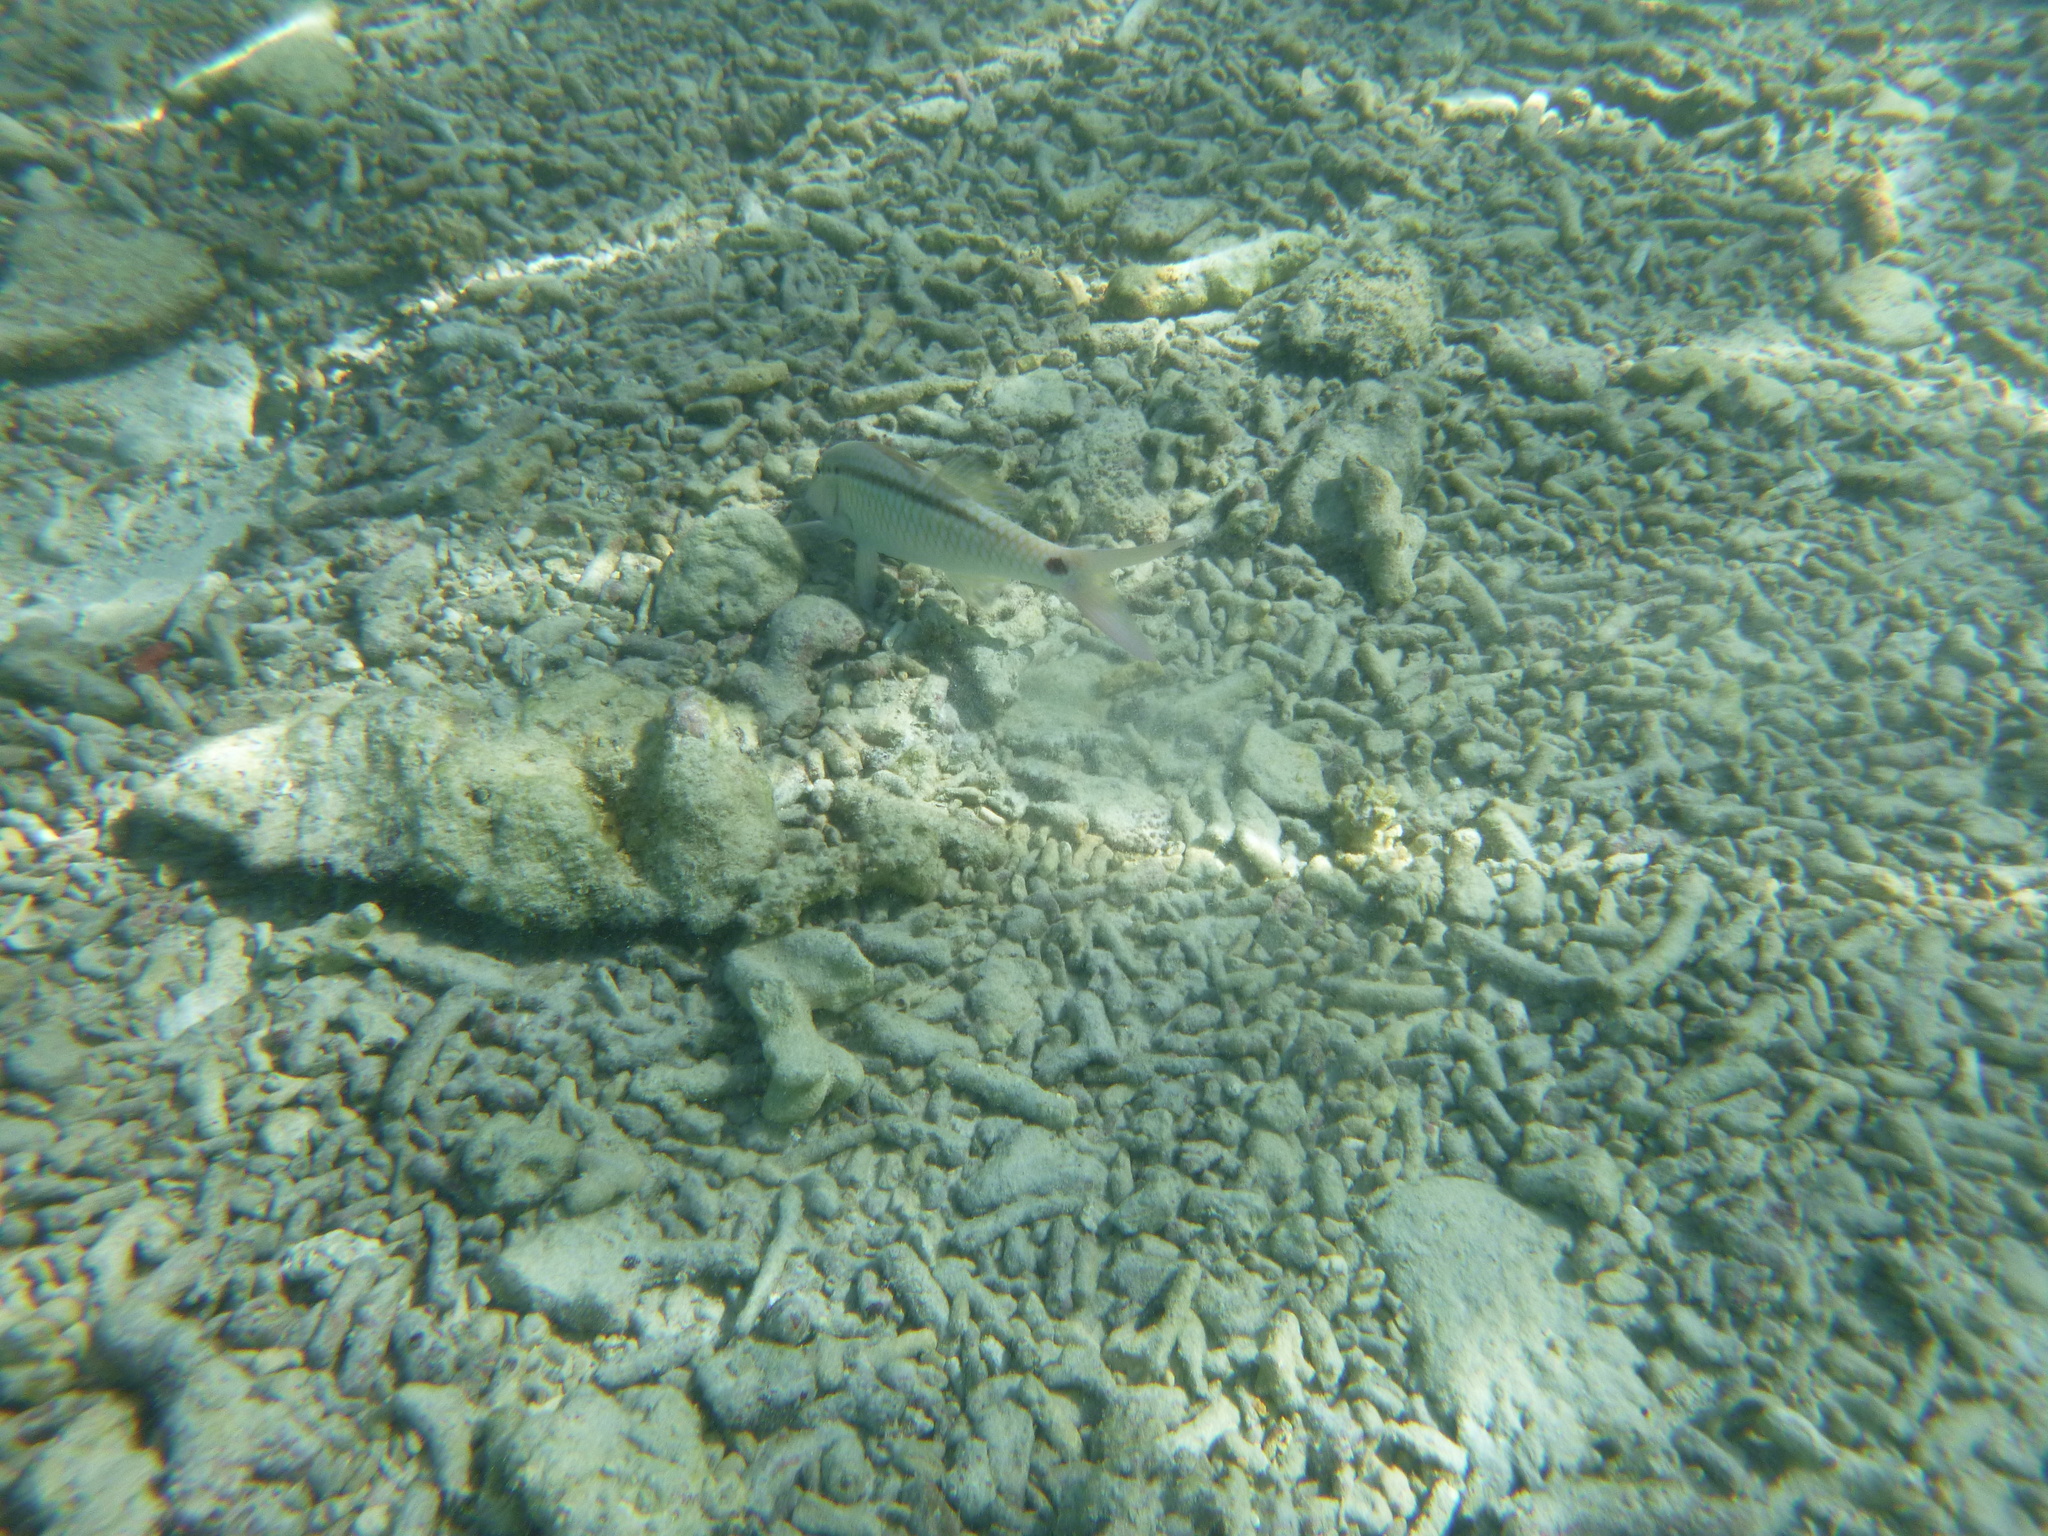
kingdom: Animalia
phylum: Chordata
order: Perciformes
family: Mullidae
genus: Parupeneus
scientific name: Parupeneus barberinus
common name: Dash-and-dot goatfish
